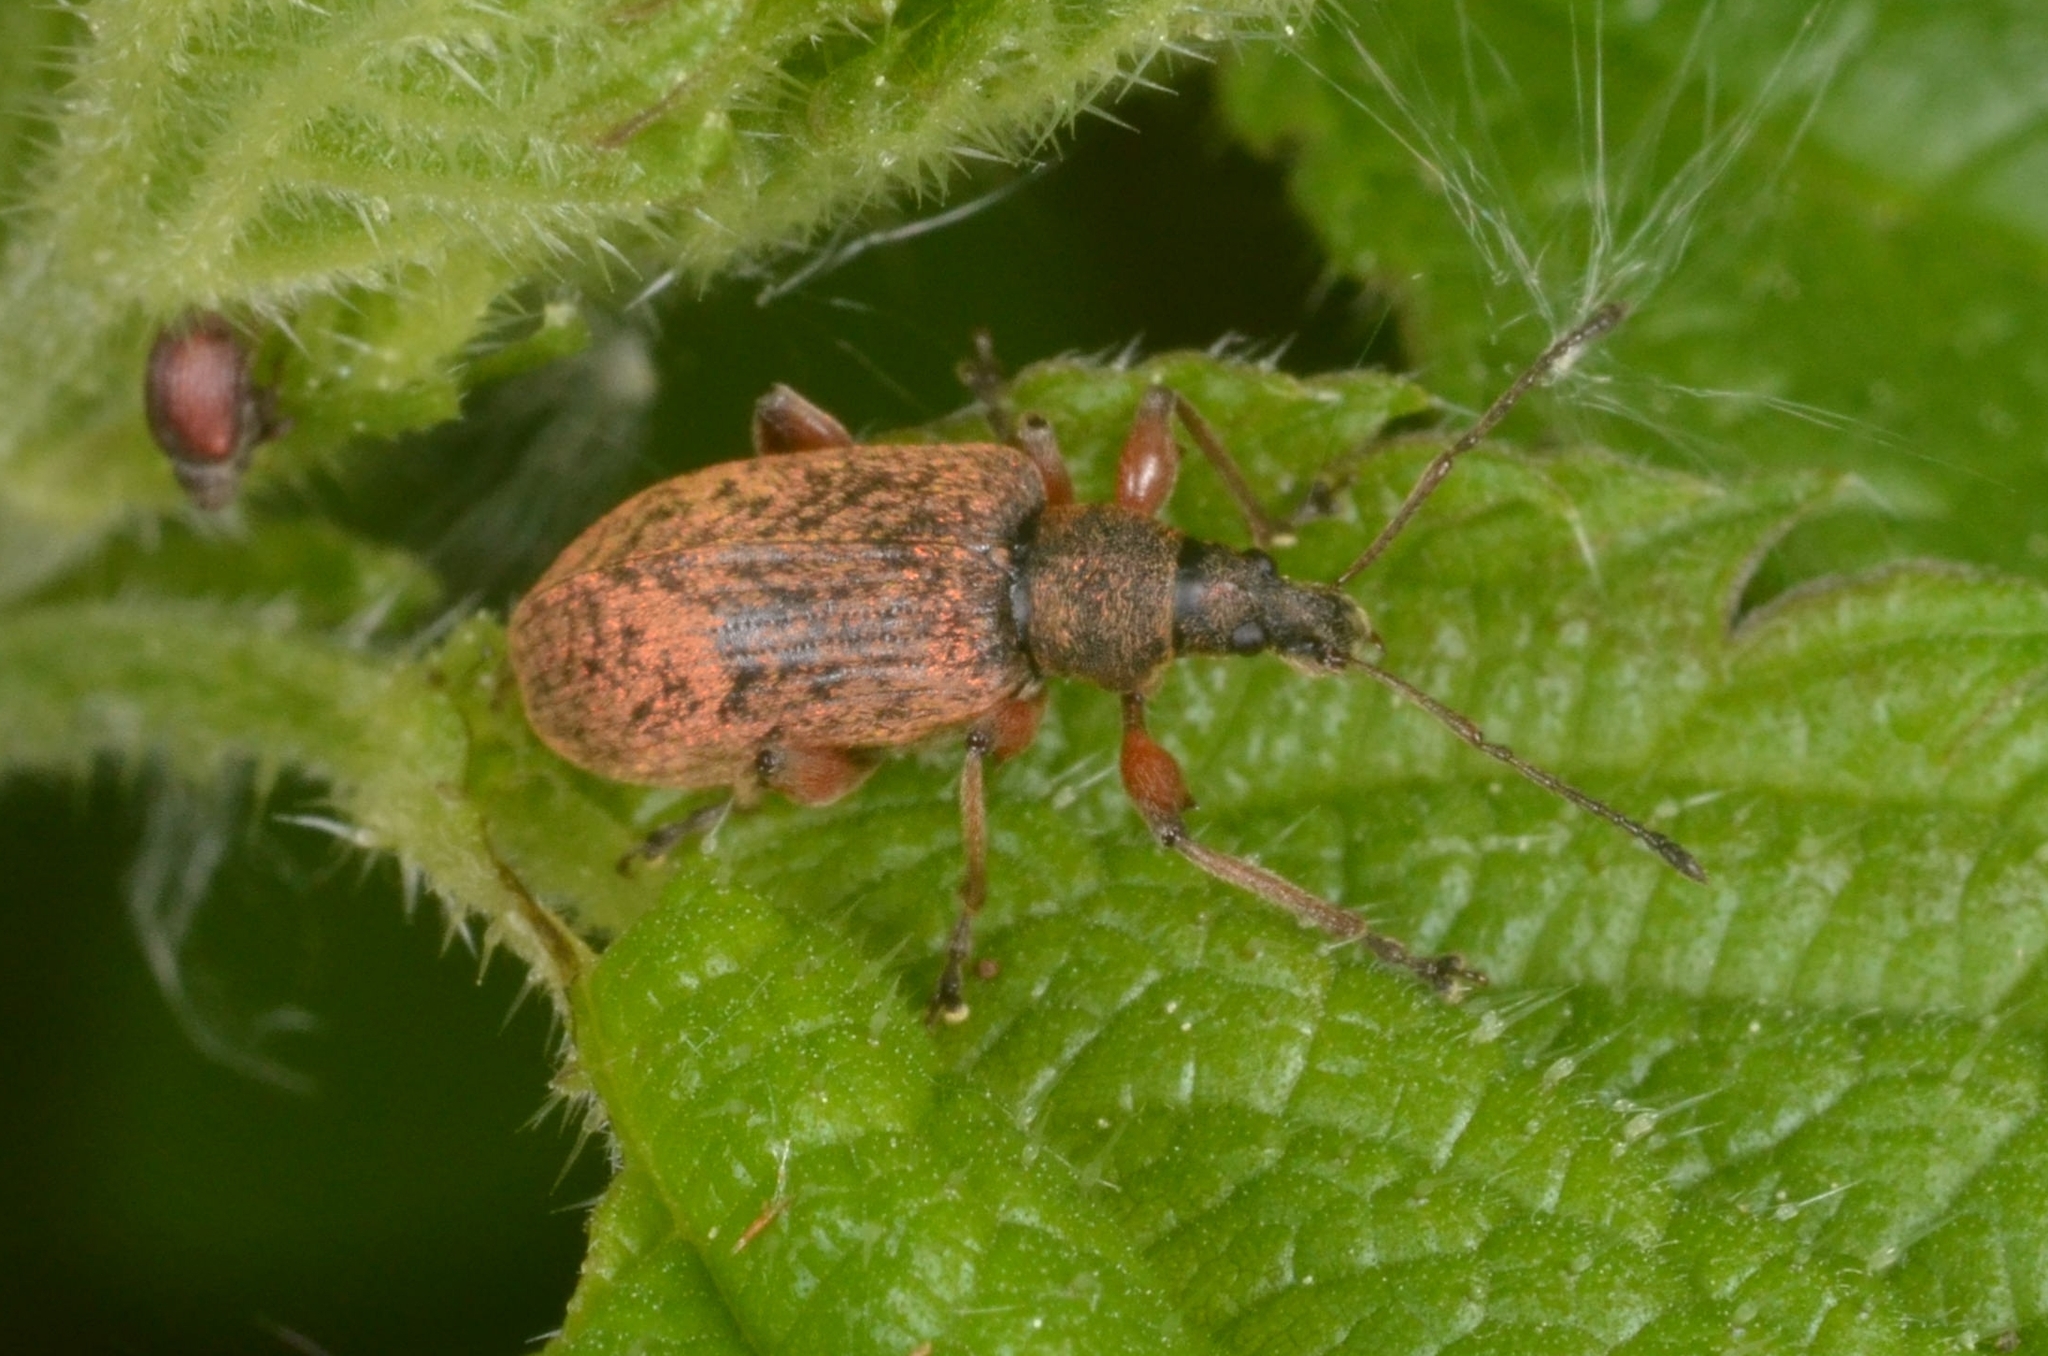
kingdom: Animalia
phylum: Arthropoda
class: Insecta
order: Coleoptera
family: Curculionidae
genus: Phyllobius
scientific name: Phyllobius glaucus
